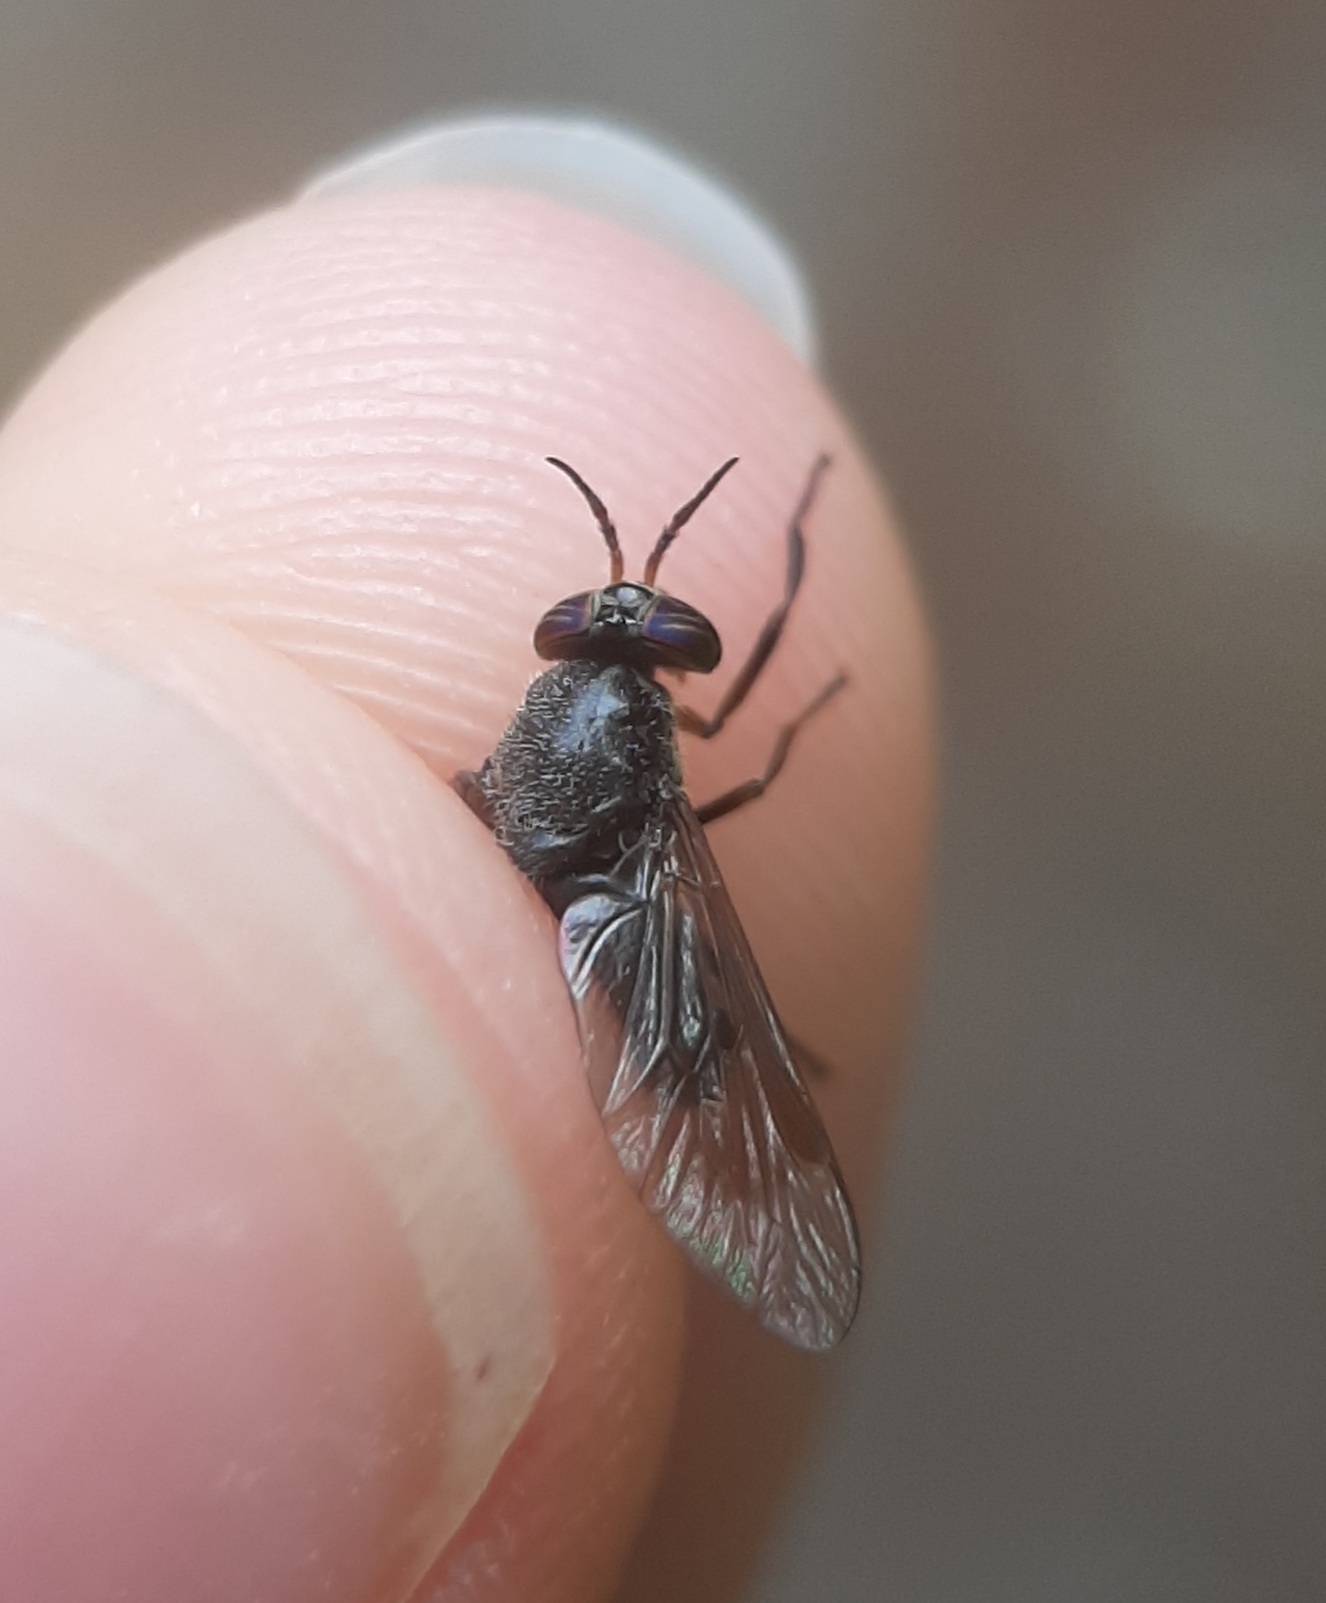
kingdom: Animalia
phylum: Arthropoda
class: Insecta
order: Diptera
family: Tabanidae
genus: Chrysops
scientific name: Chrysops fuliginosus
